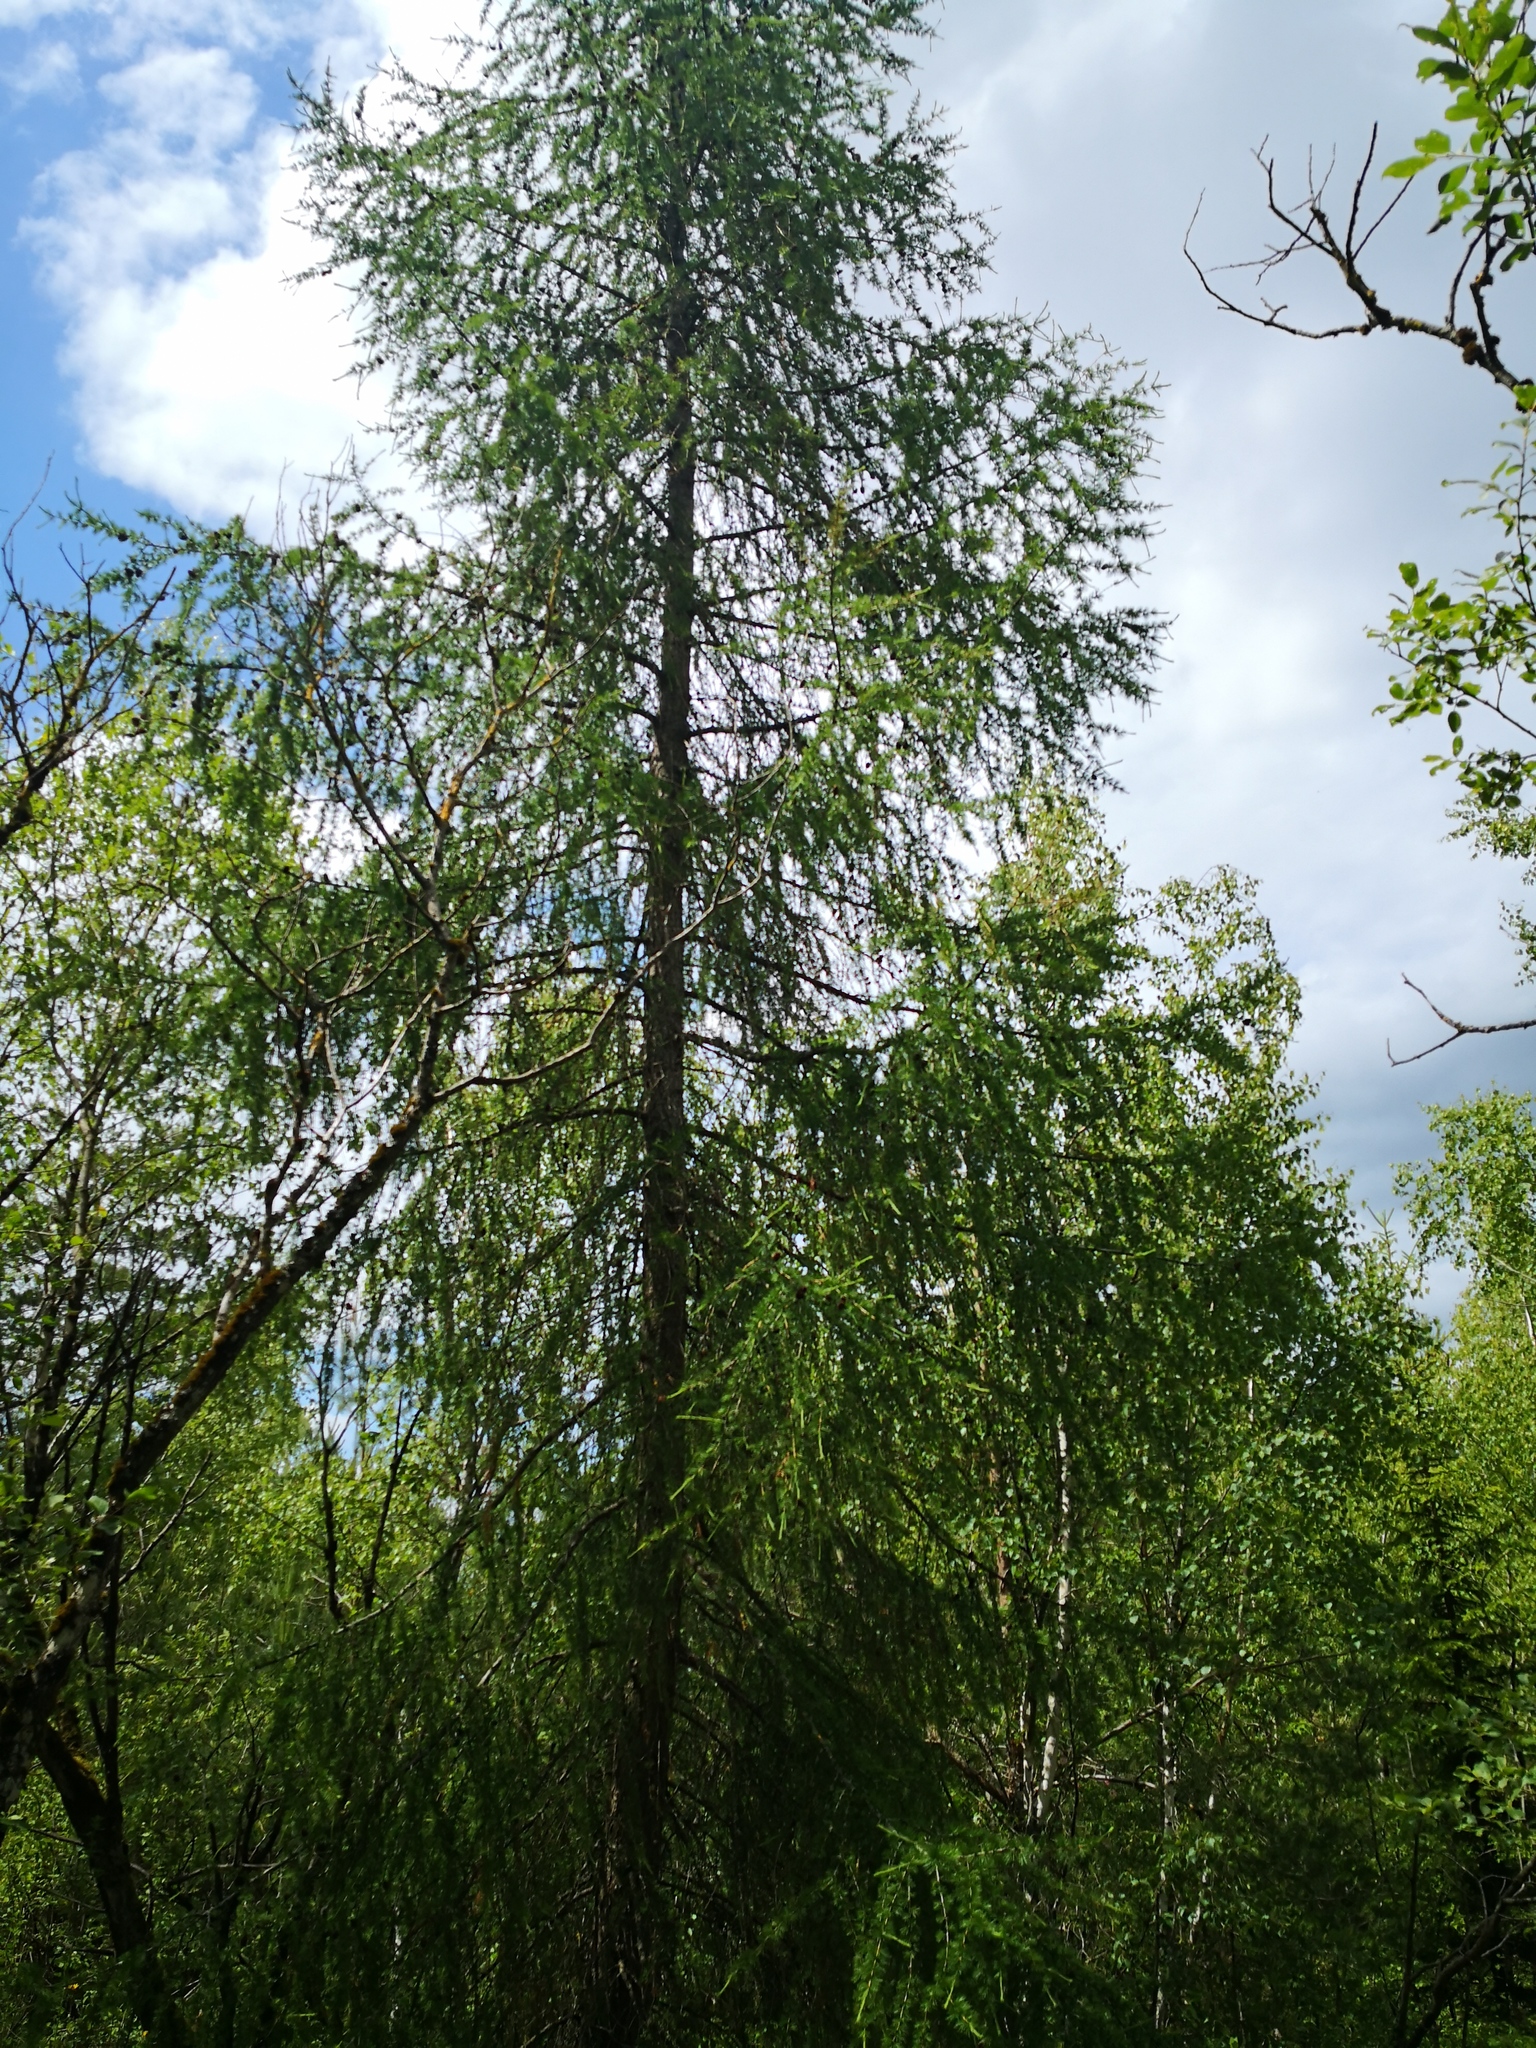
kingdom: Plantae
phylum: Tracheophyta
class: Pinopsida
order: Pinales
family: Pinaceae
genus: Larix
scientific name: Larix decidua
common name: European larch
